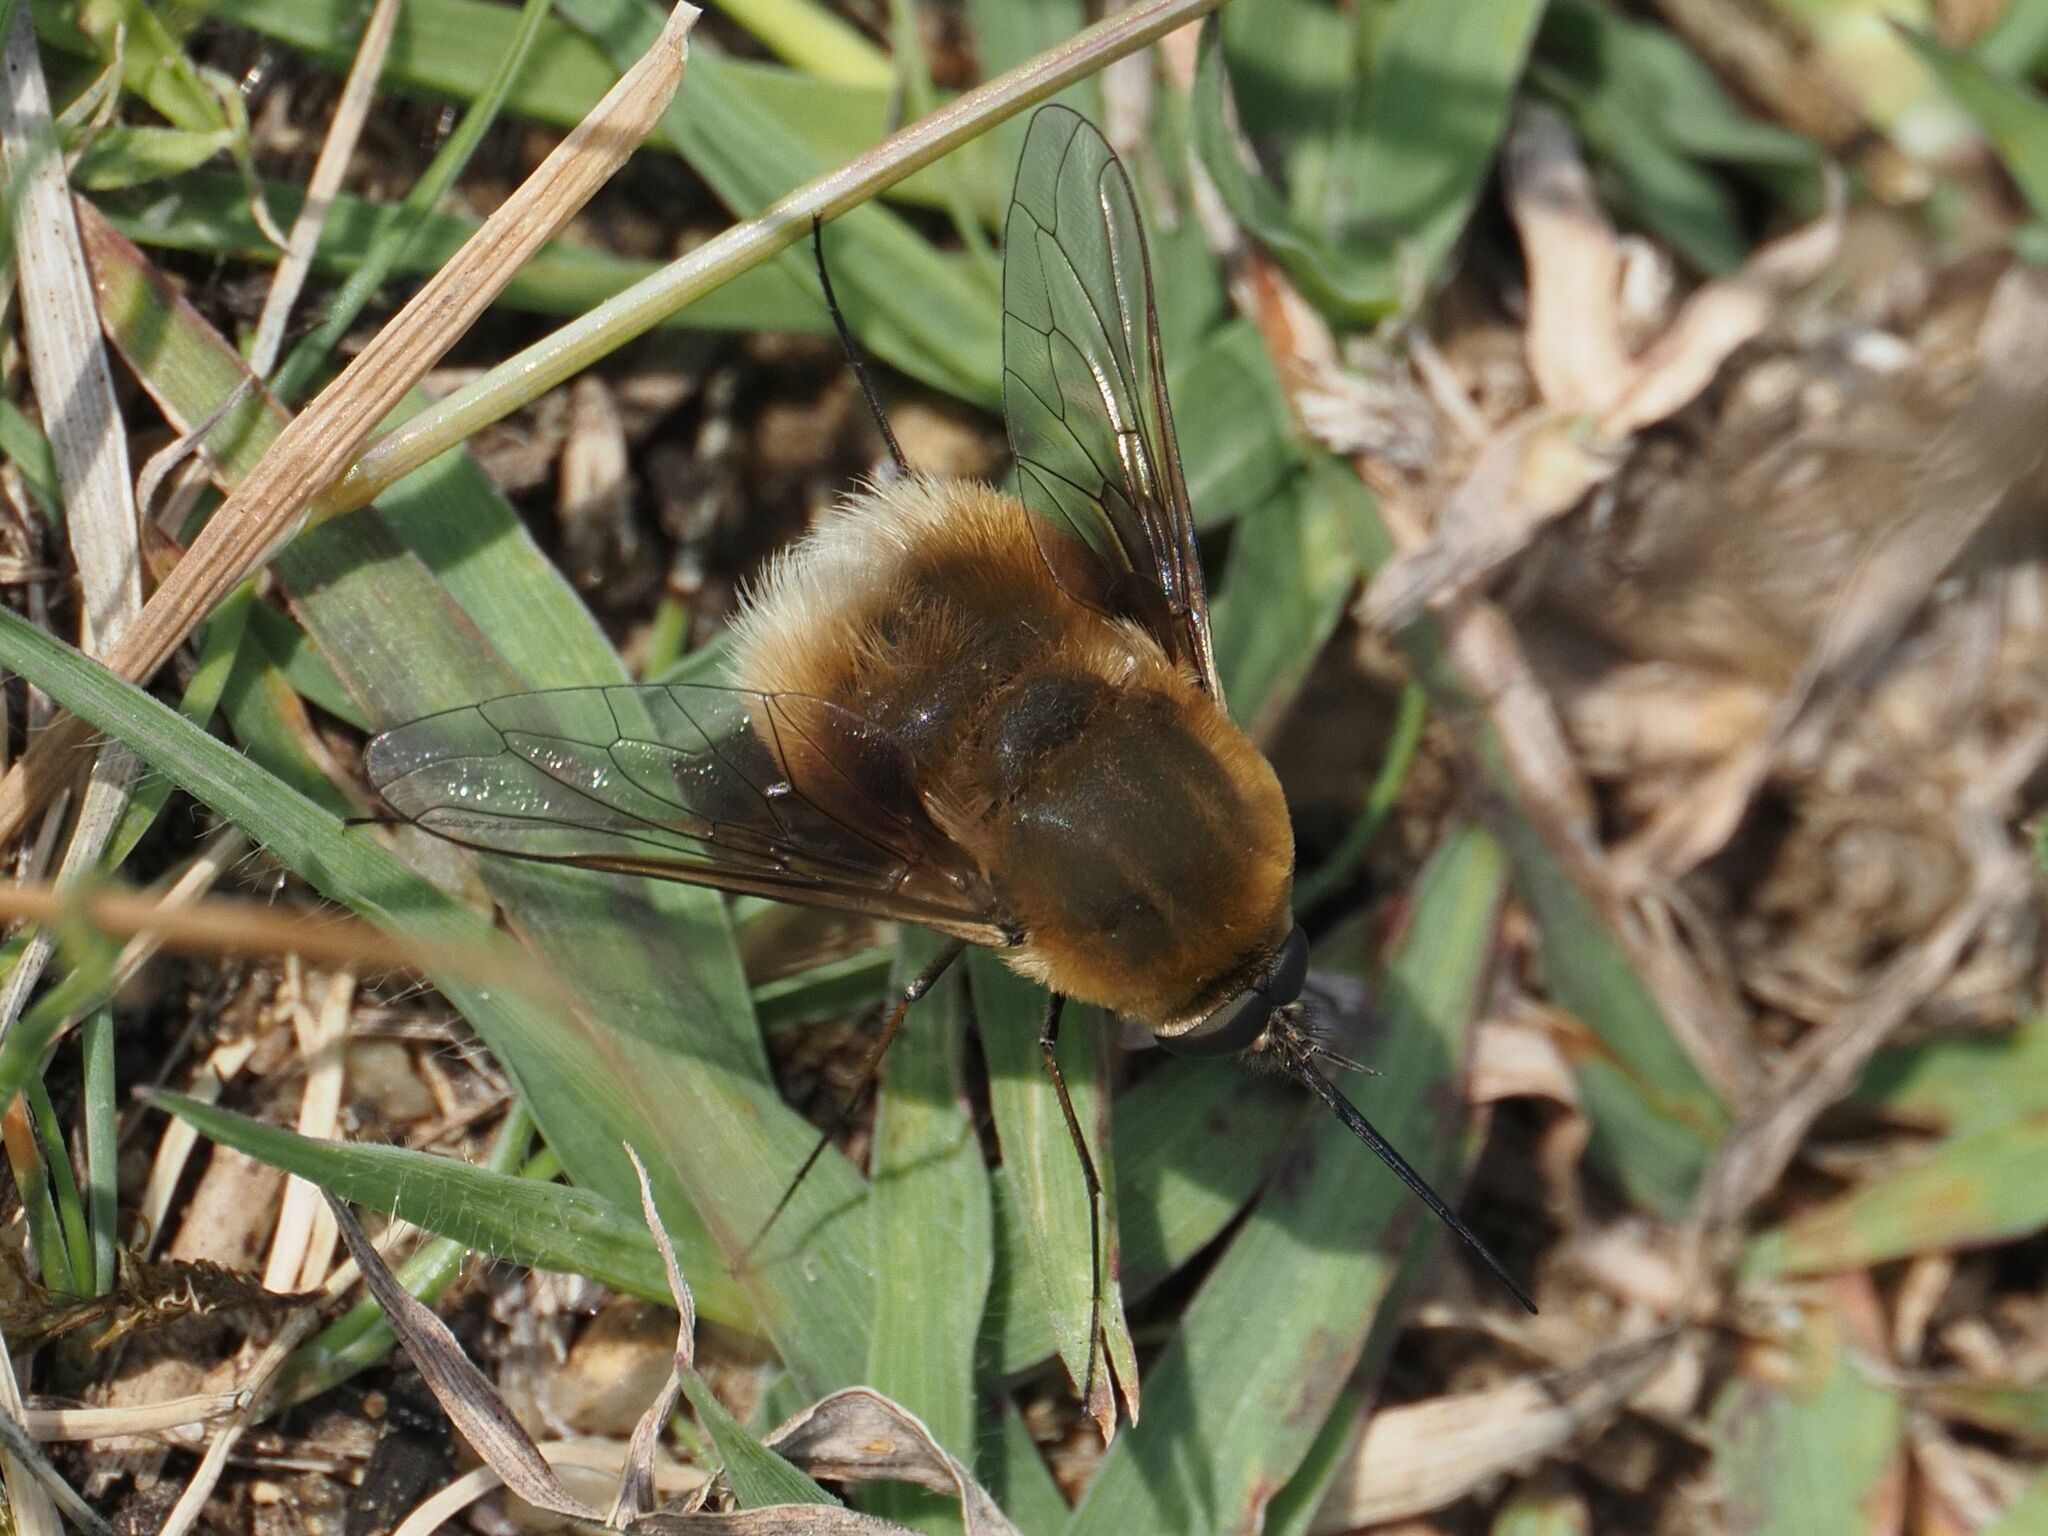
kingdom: Animalia
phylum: Arthropoda
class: Insecta
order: Diptera
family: Bombyliidae
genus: Bombylius
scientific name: Bombylius posticus
